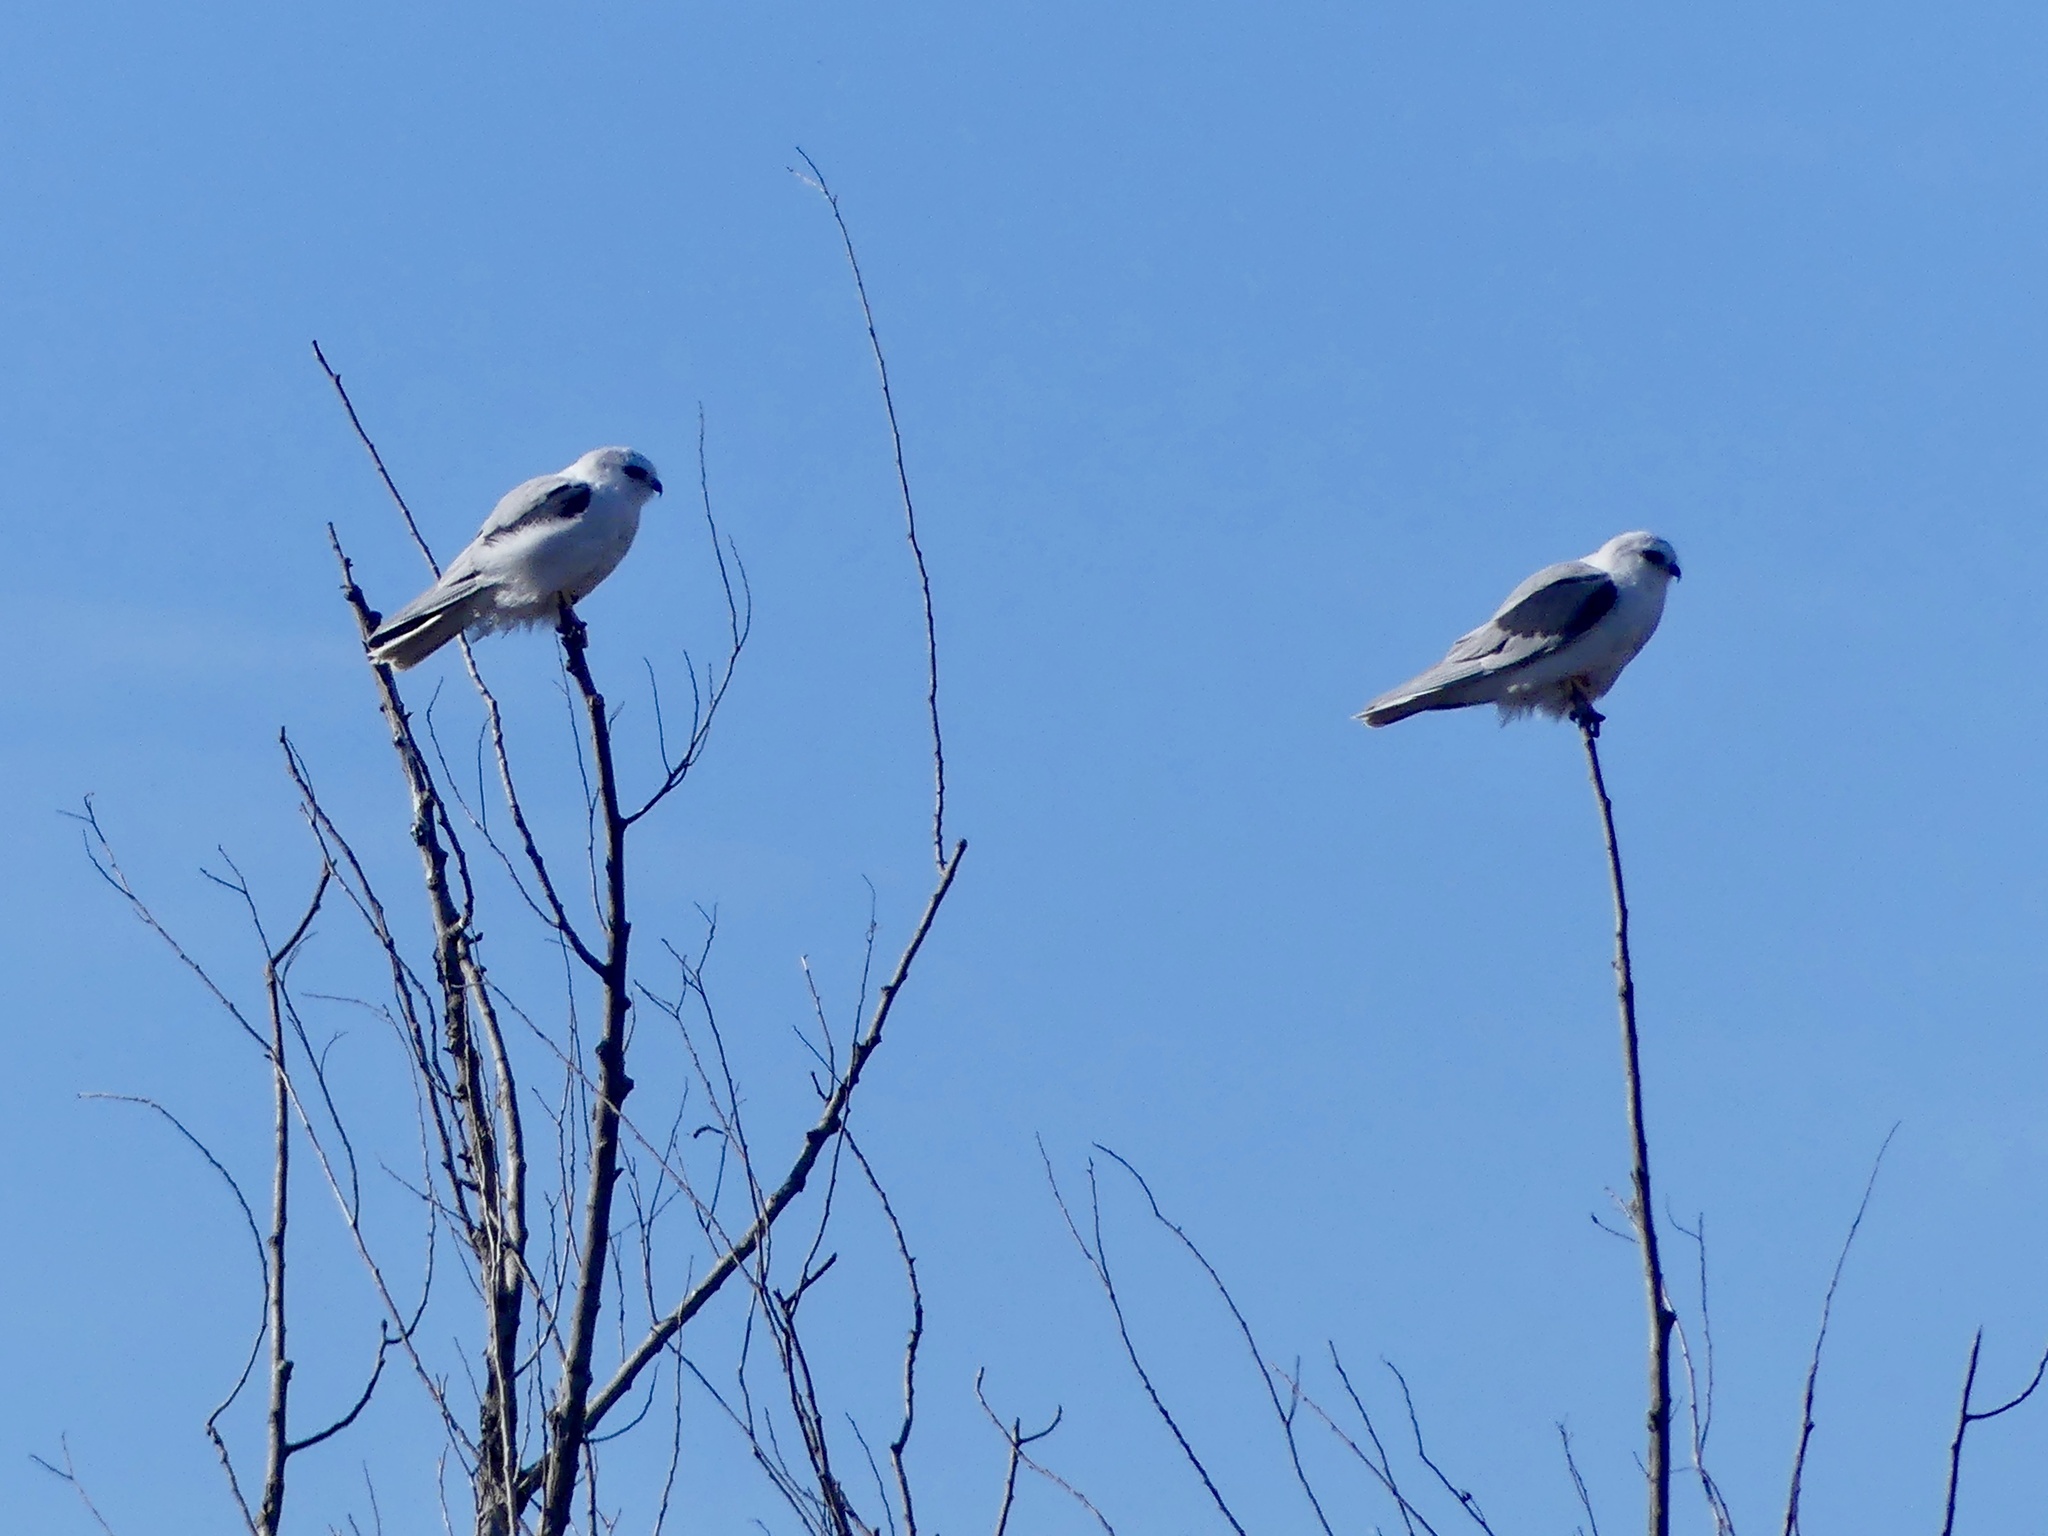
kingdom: Animalia
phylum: Chordata
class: Aves
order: Accipitriformes
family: Accipitridae
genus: Elanus
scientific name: Elanus leucurus
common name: White-tailed kite
